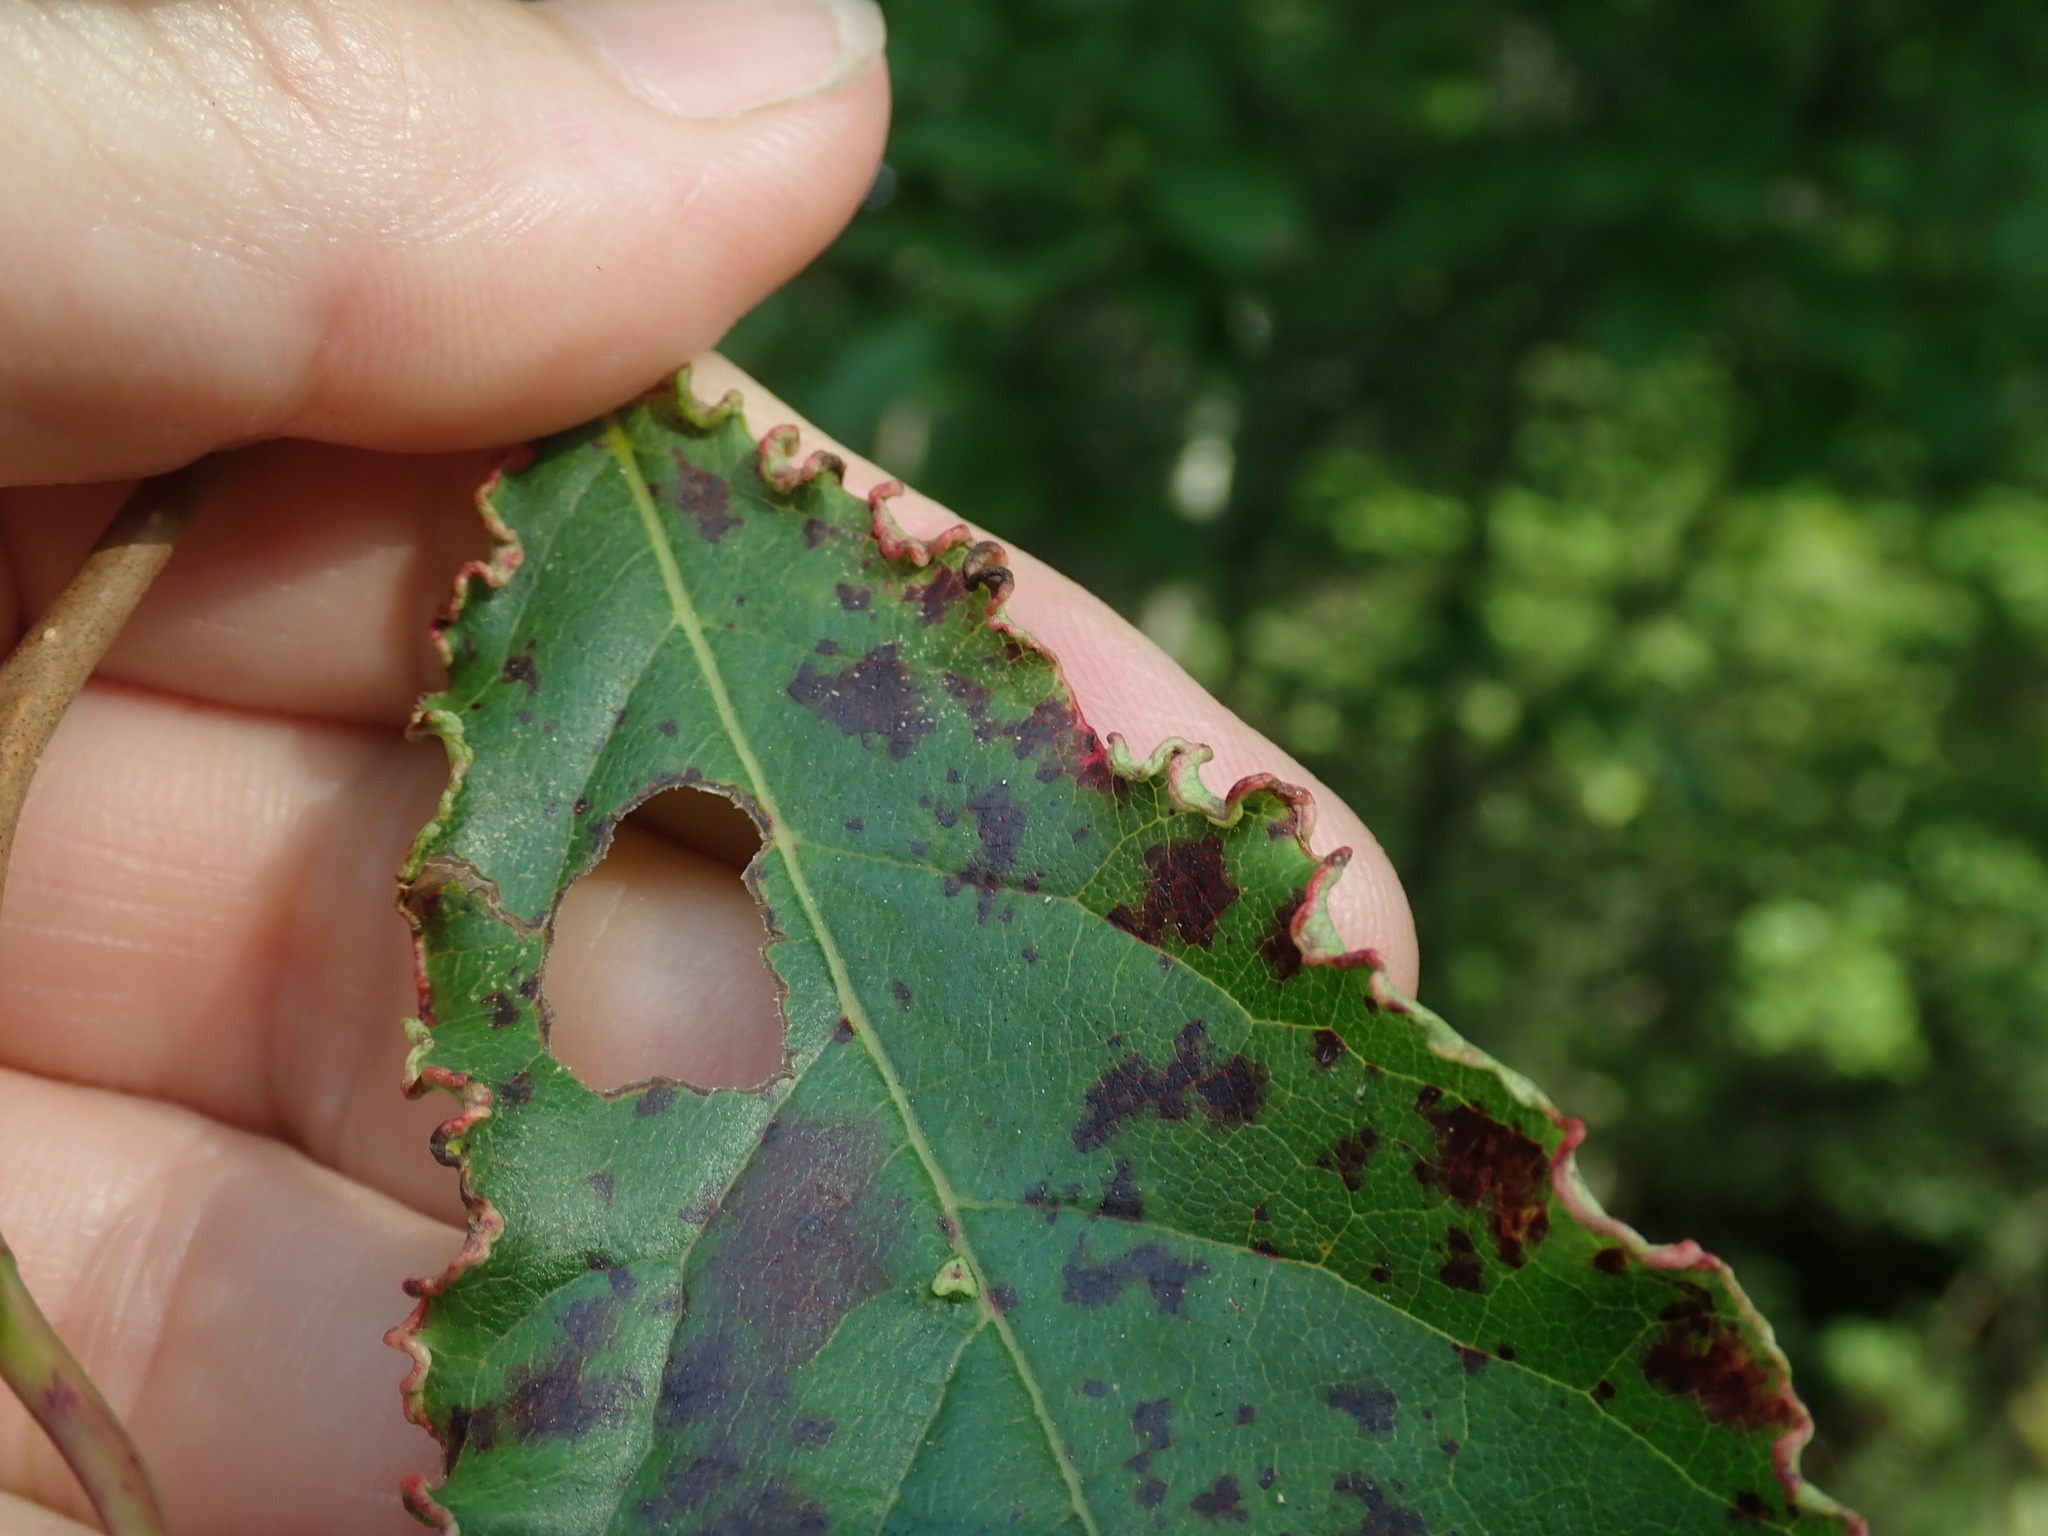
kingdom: Animalia
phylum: Arthropoda
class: Arachnida
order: Trombidiformes
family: Eriophyidae
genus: Aceria
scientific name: Aceria
